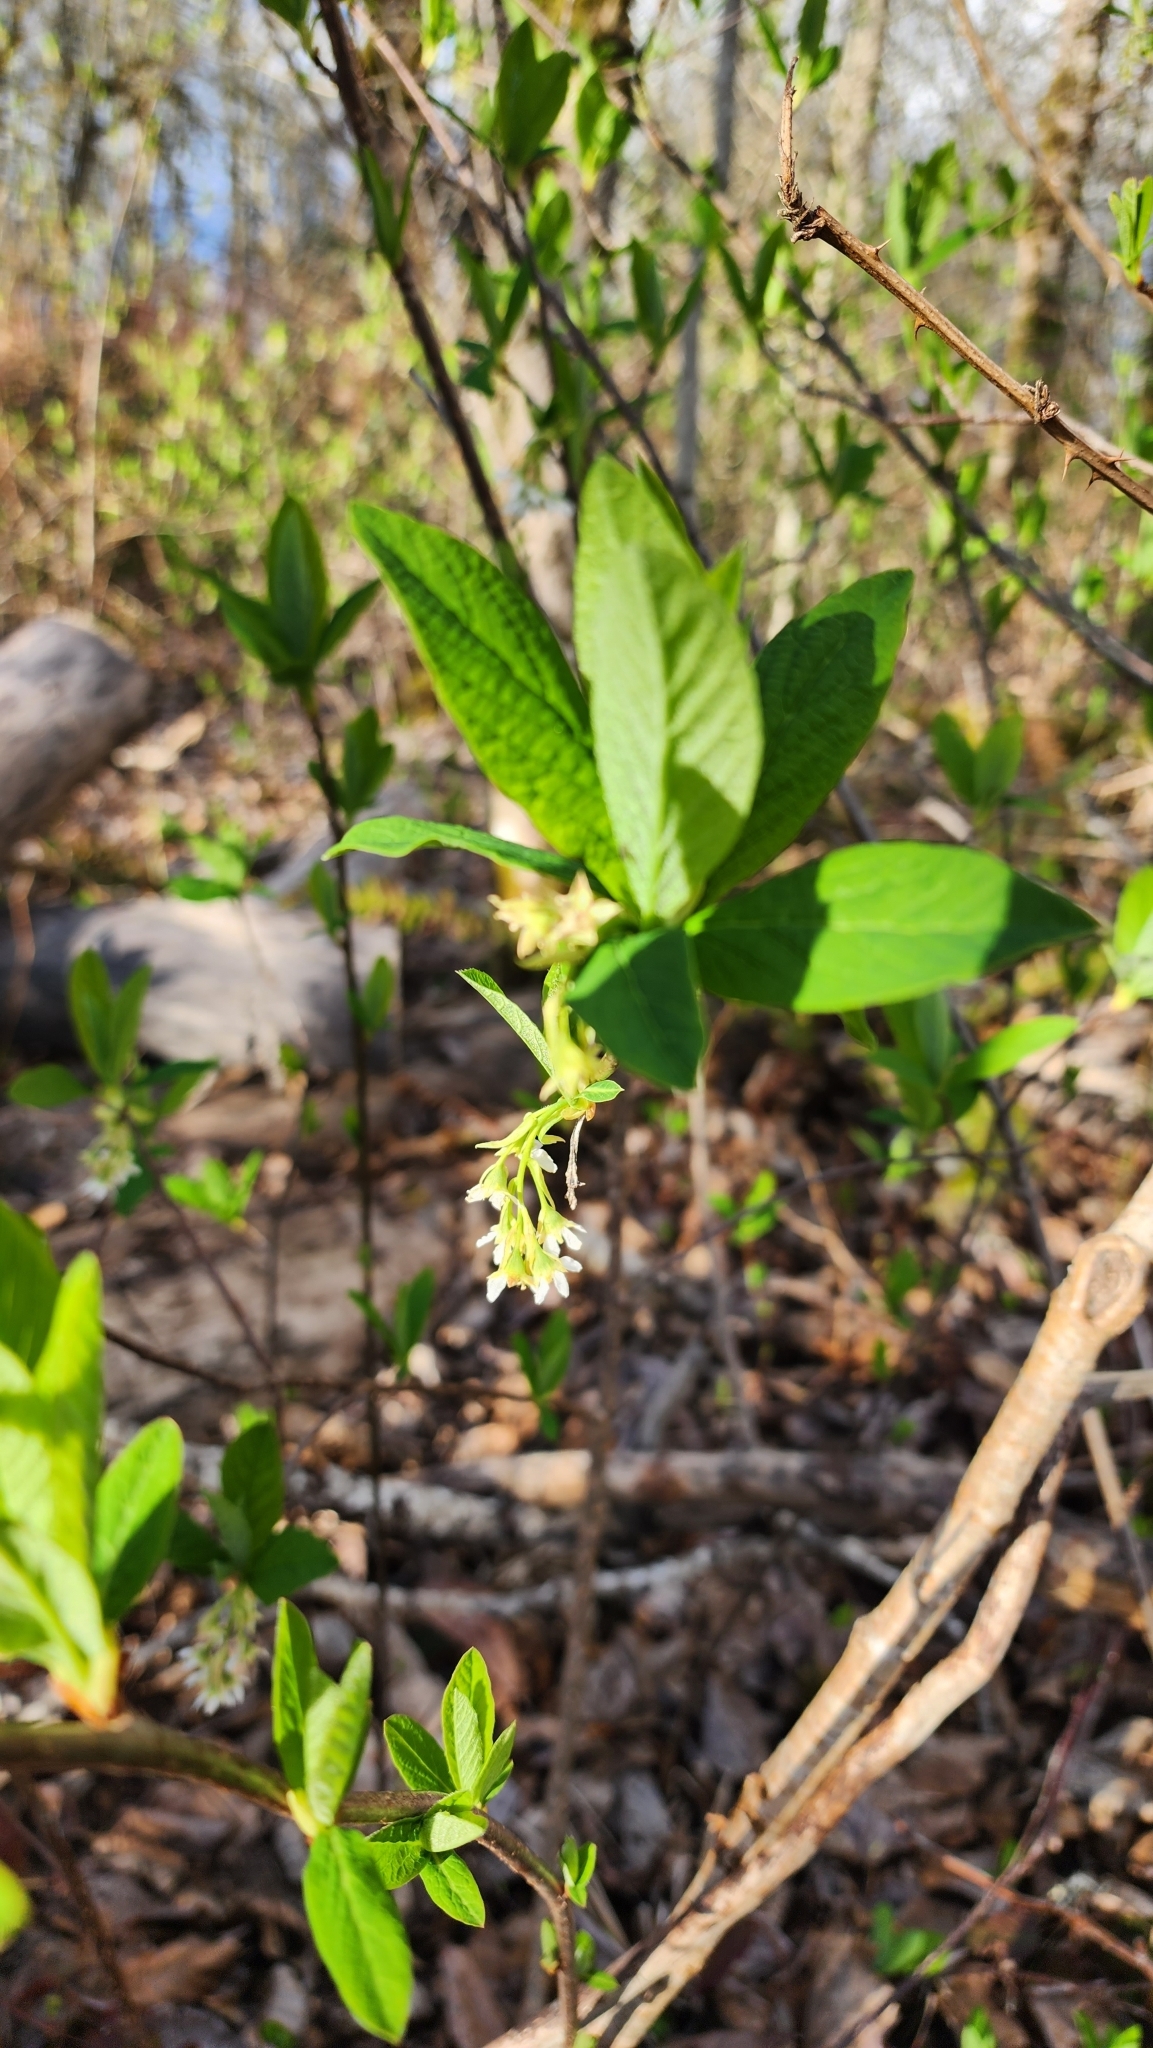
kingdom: Plantae
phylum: Tracheophyta
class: Magnoliopsida
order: Rosales
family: Rosaceae
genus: Oemleria
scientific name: Oemleria cerasiformis
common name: Osoberry
